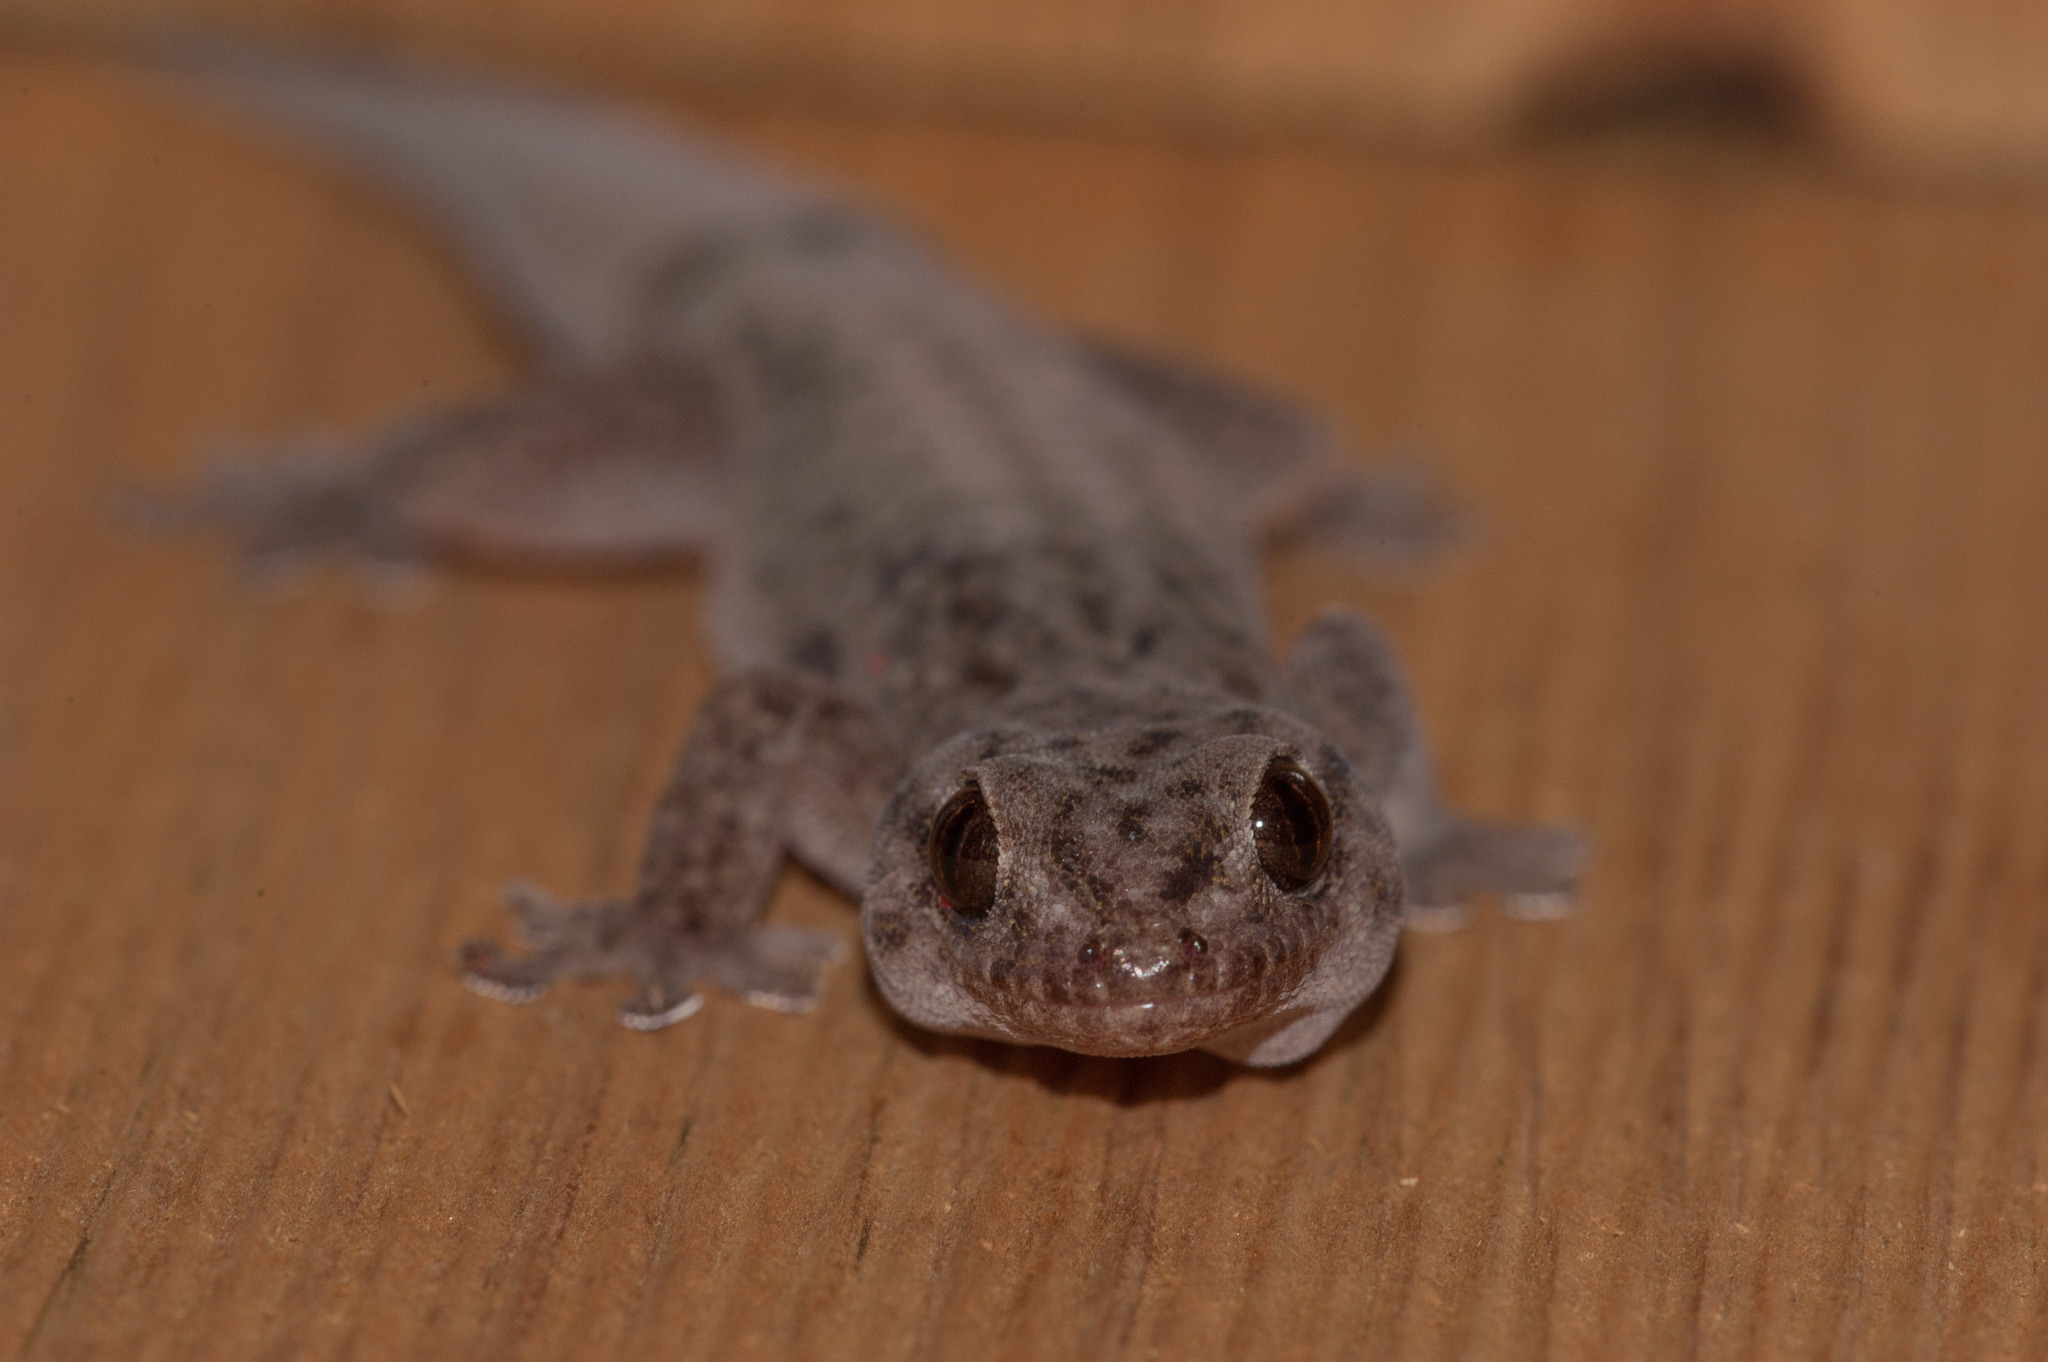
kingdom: Animalia
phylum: Chordata
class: Squamata
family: Gekkonidae
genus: Gehyra
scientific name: Gehyra versicolor
